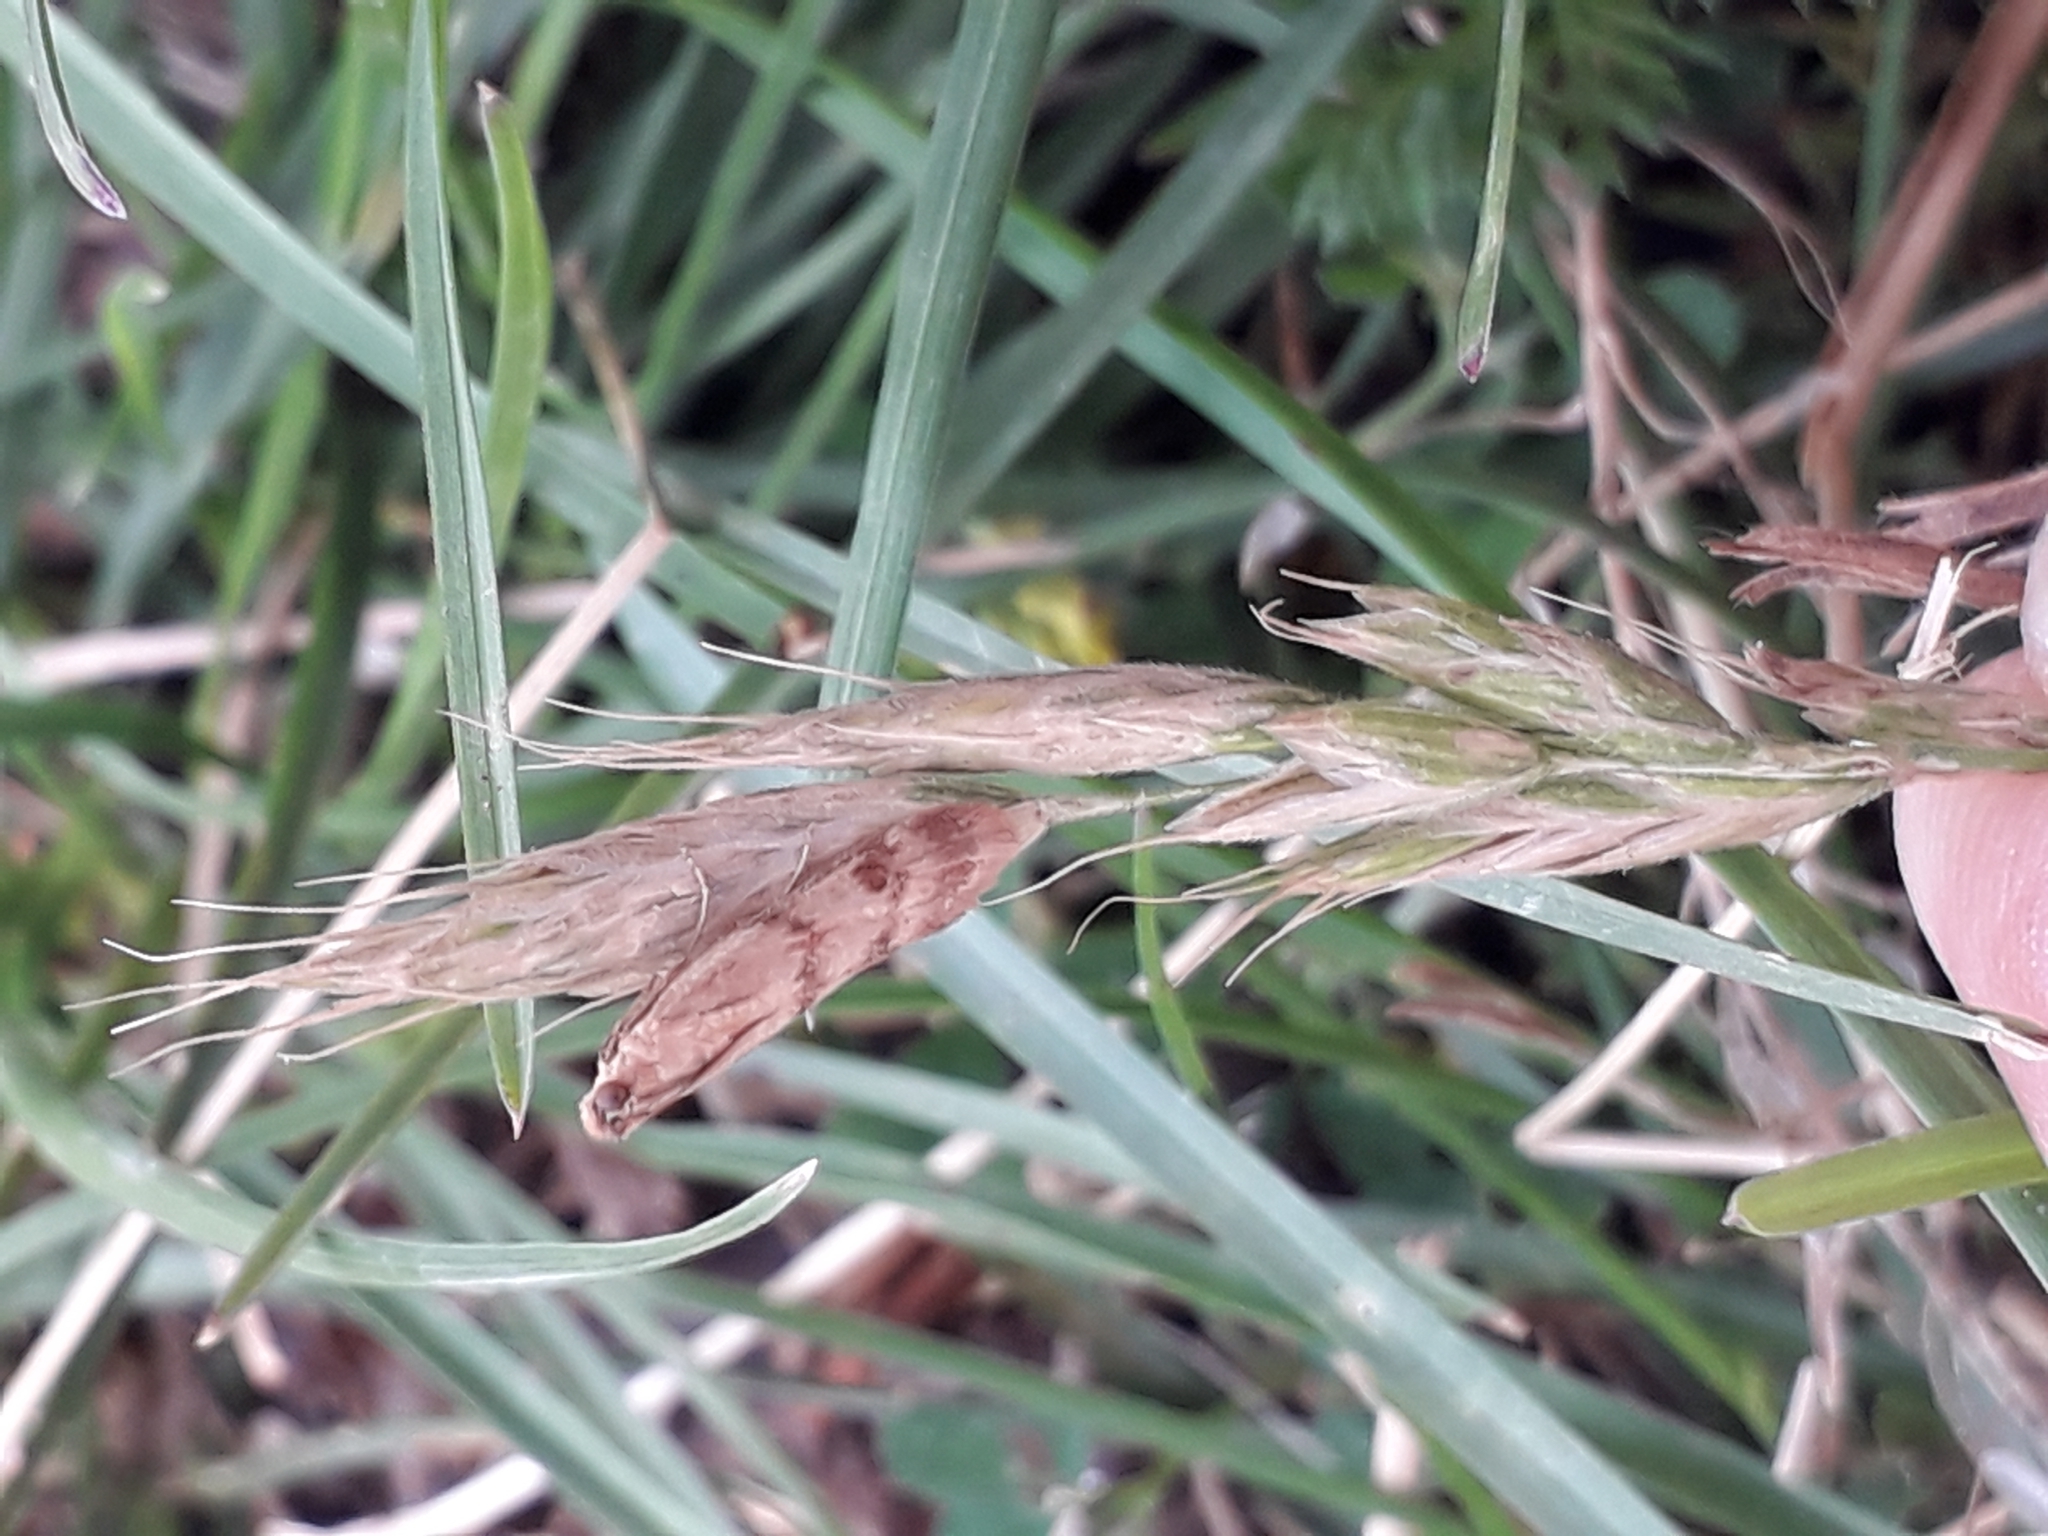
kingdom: Animalia
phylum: Arthropoda
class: Insecta
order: Lepidoptera
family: Pyralidae
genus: Homoeosoma
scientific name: Homoeosoma sinuella
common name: Twin-barred knot-horn
